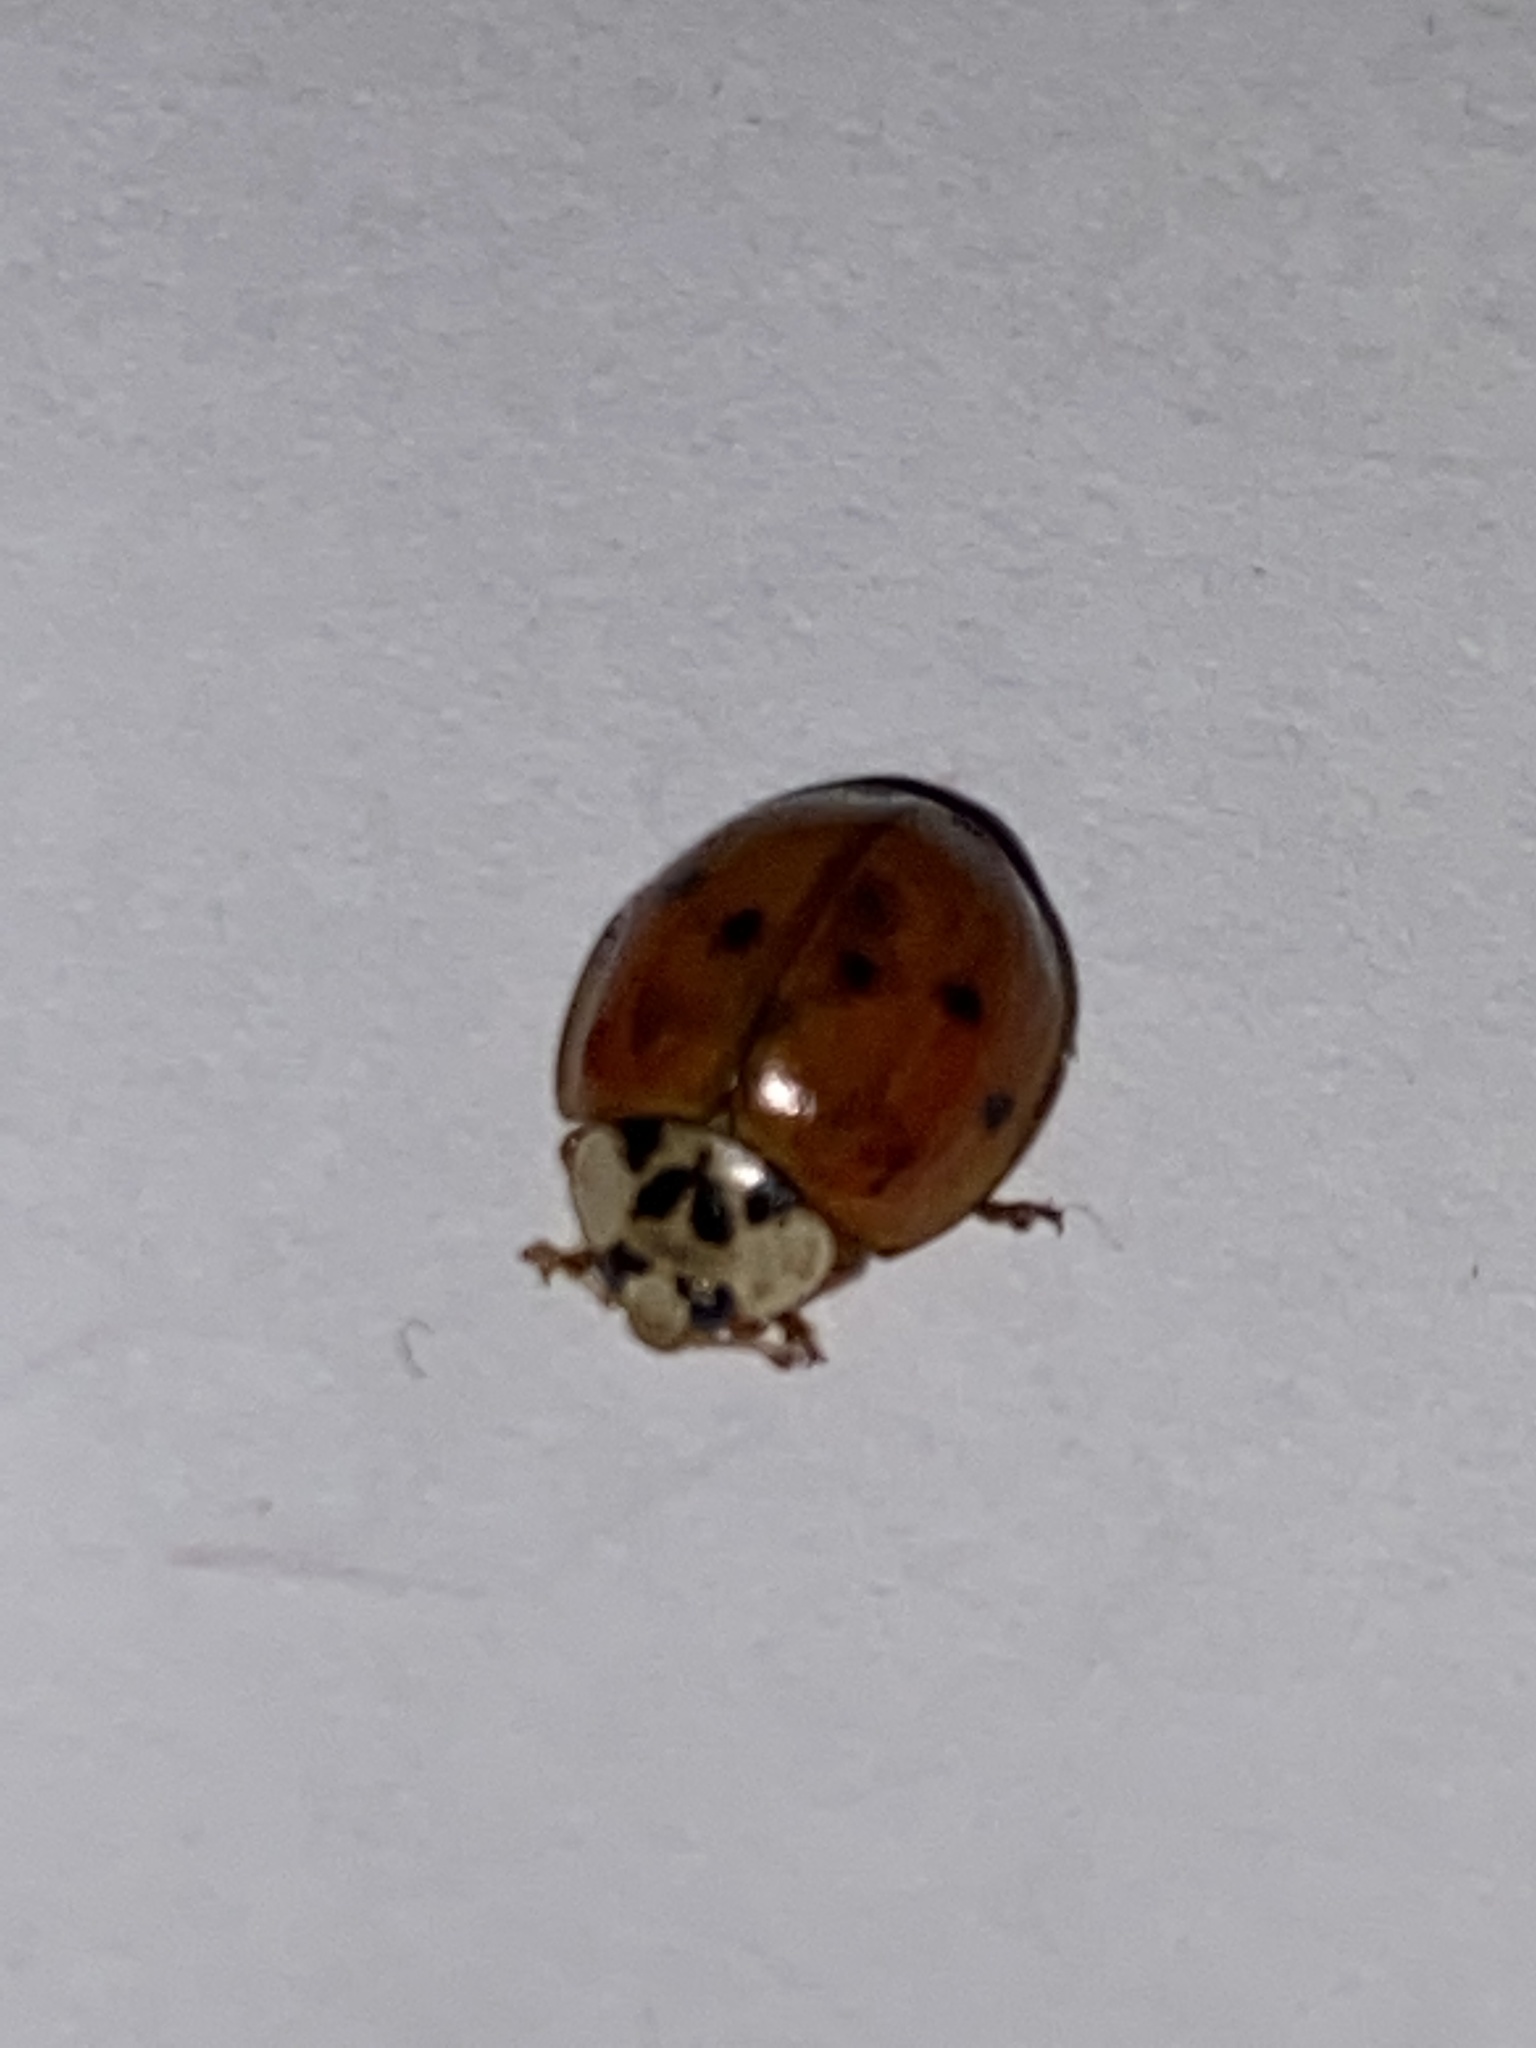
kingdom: Animalia
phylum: Arthropoda
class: Insecta
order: Coleoptera
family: Coccinellidae
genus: Harmonia
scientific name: Harmonia axyridis
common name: Harlequin ladybird
